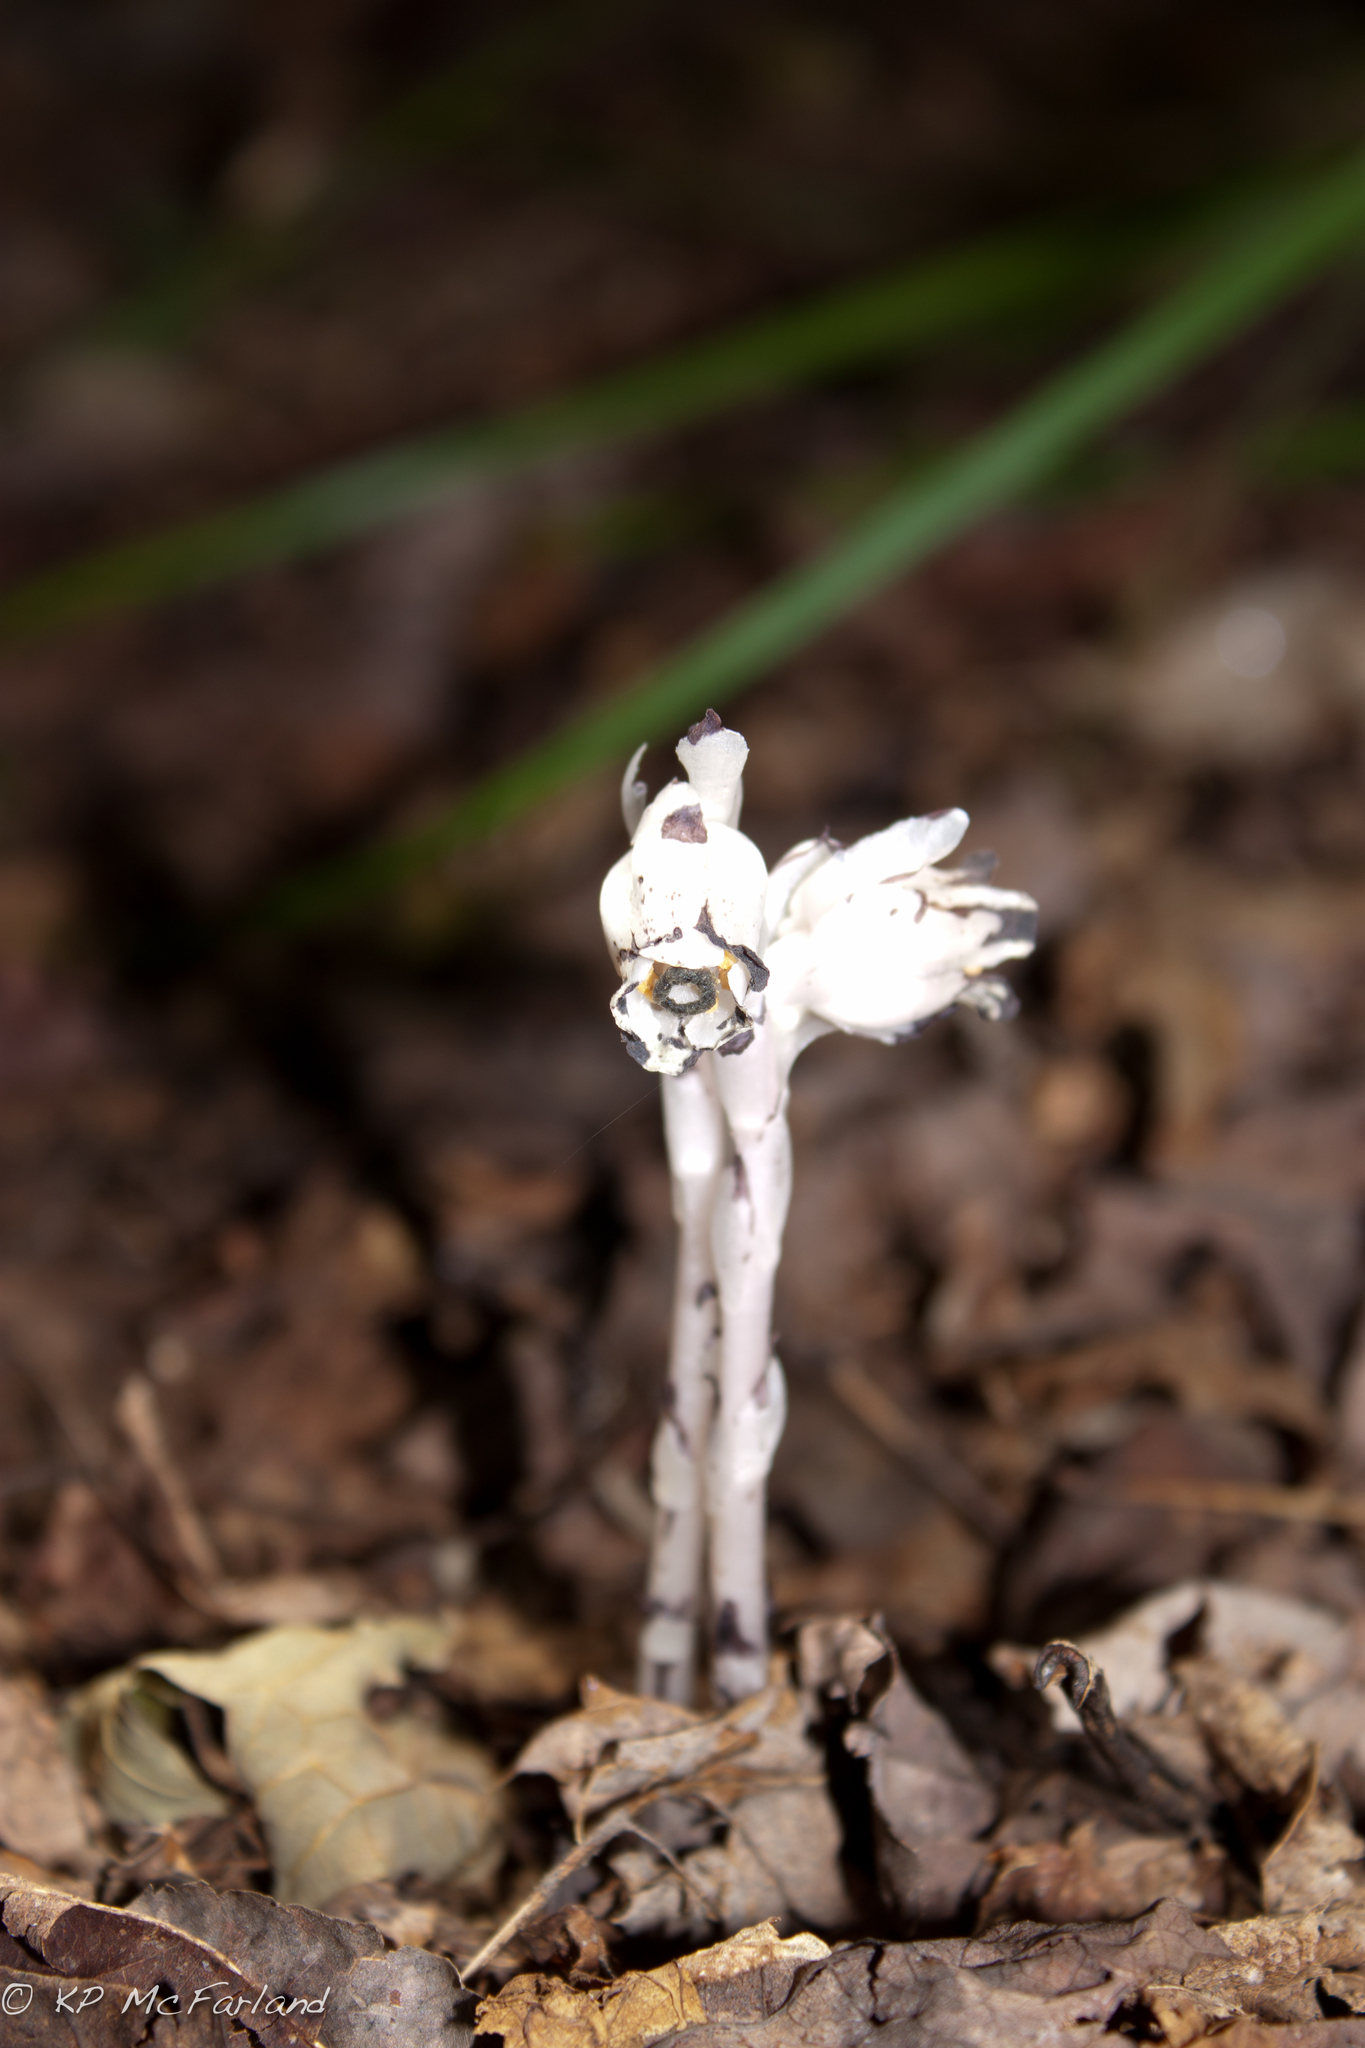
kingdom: Plantae
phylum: Tracheophyta
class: Magnoliopsida
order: Ericales
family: Ericaceae
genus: Monotropa
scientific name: Monotropa uniflora
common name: Convulsion root
